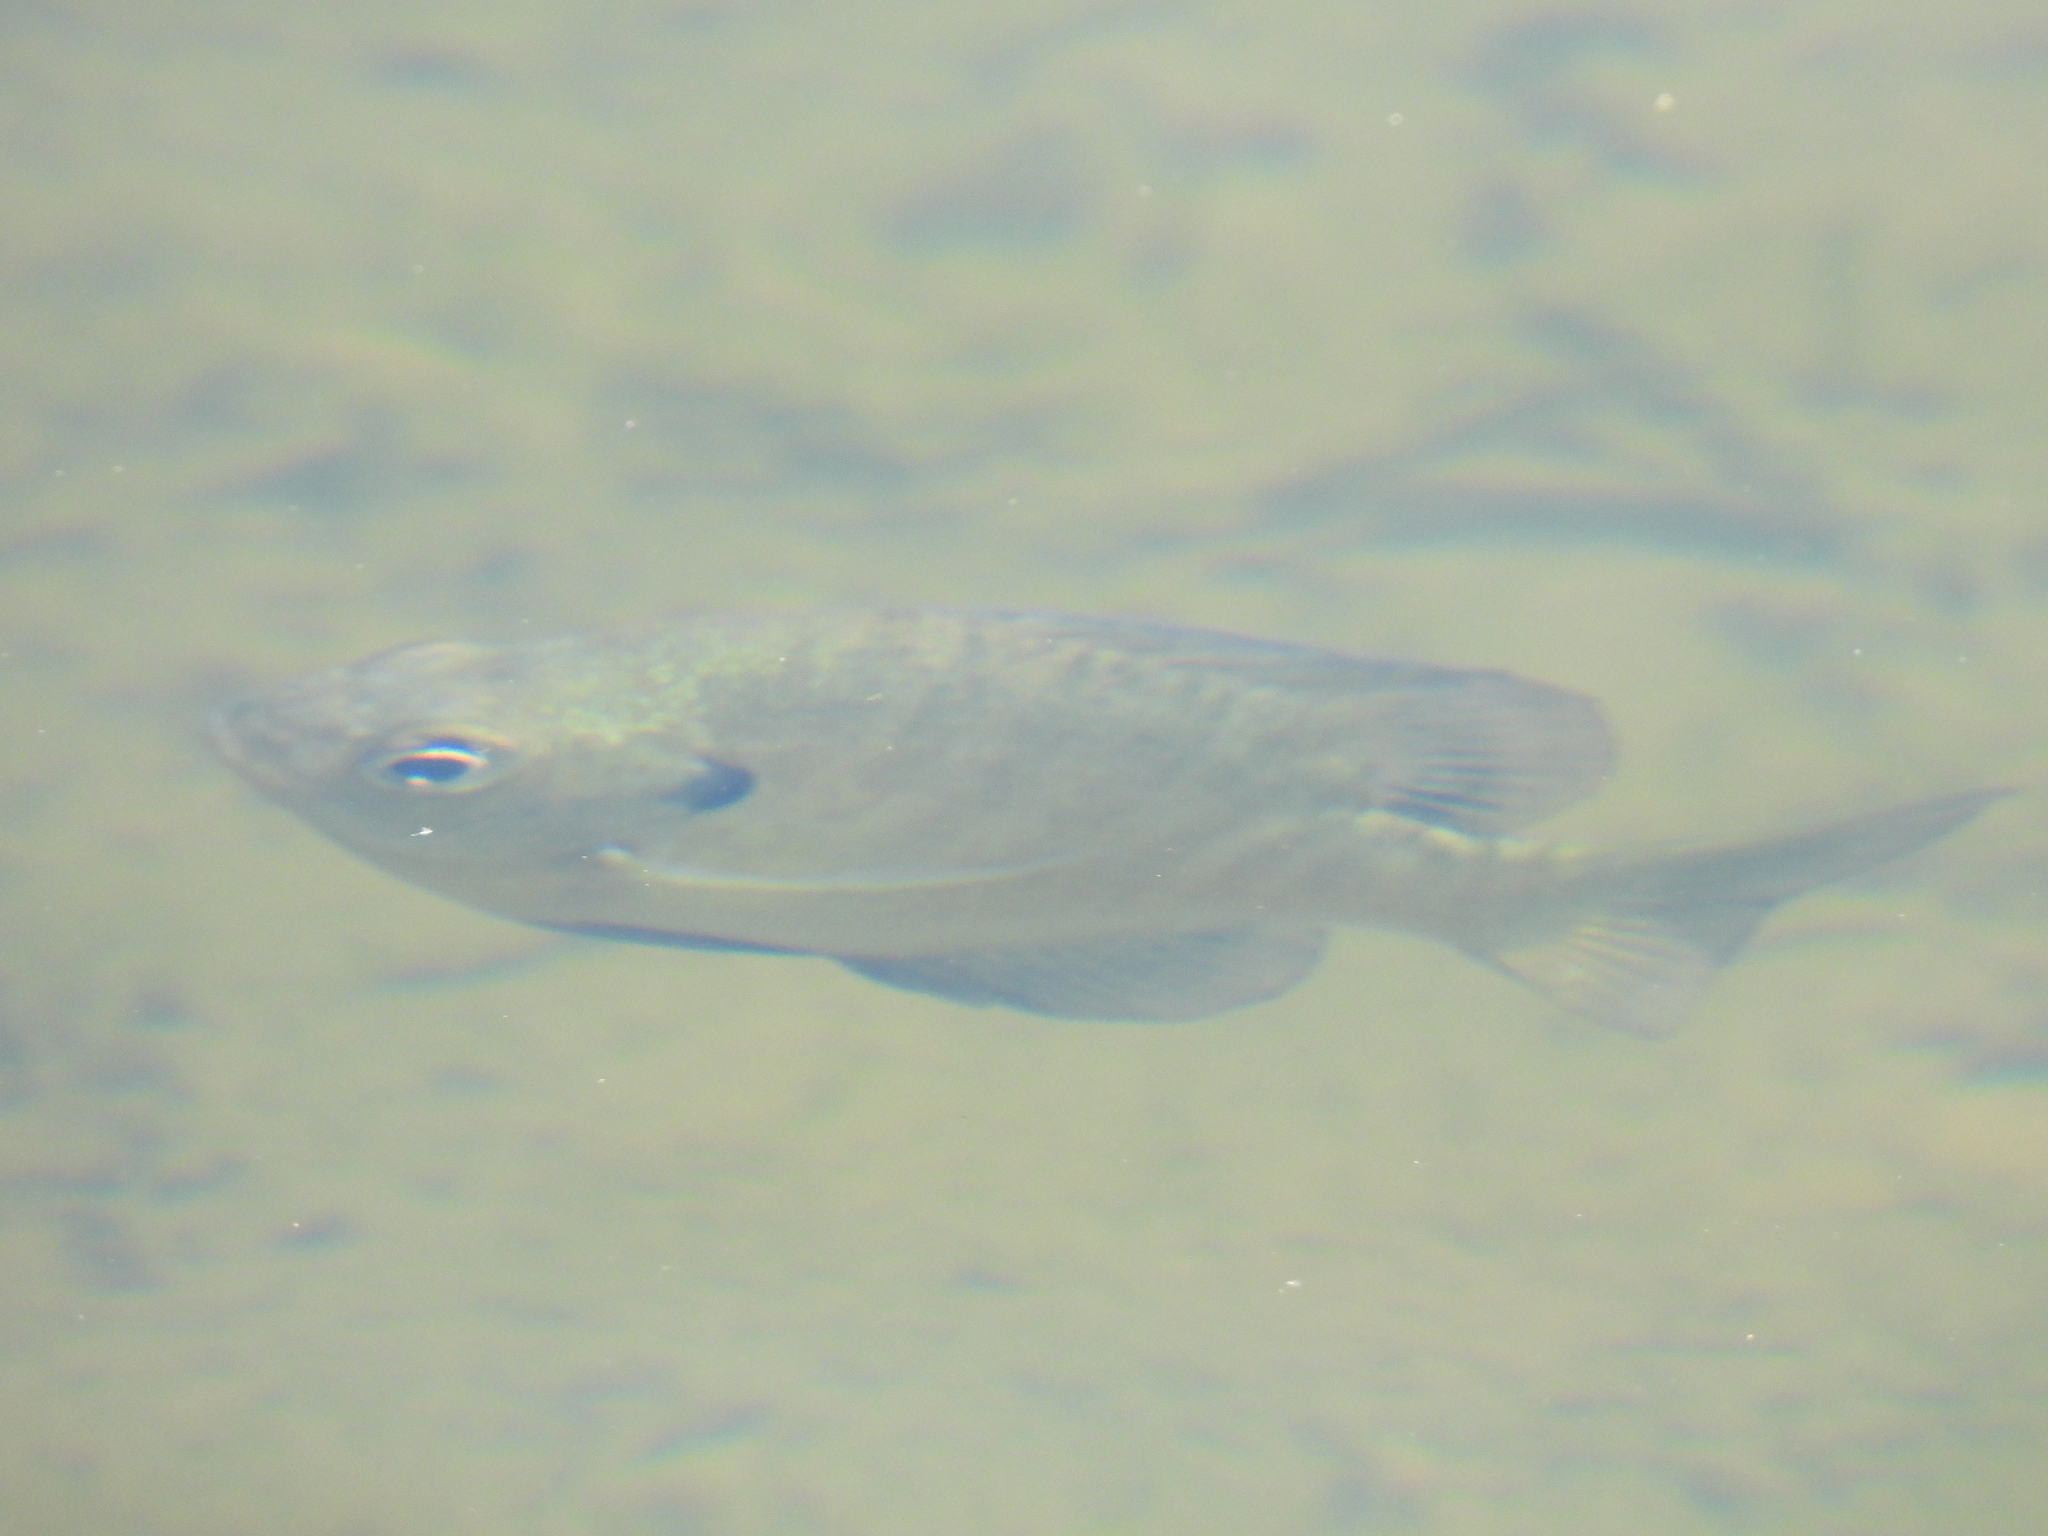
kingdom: Animalia
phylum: Chordata
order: Perciformes
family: Centrarchidae
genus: Lepomis
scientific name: Lepomis macrochirus
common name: Bluegill
